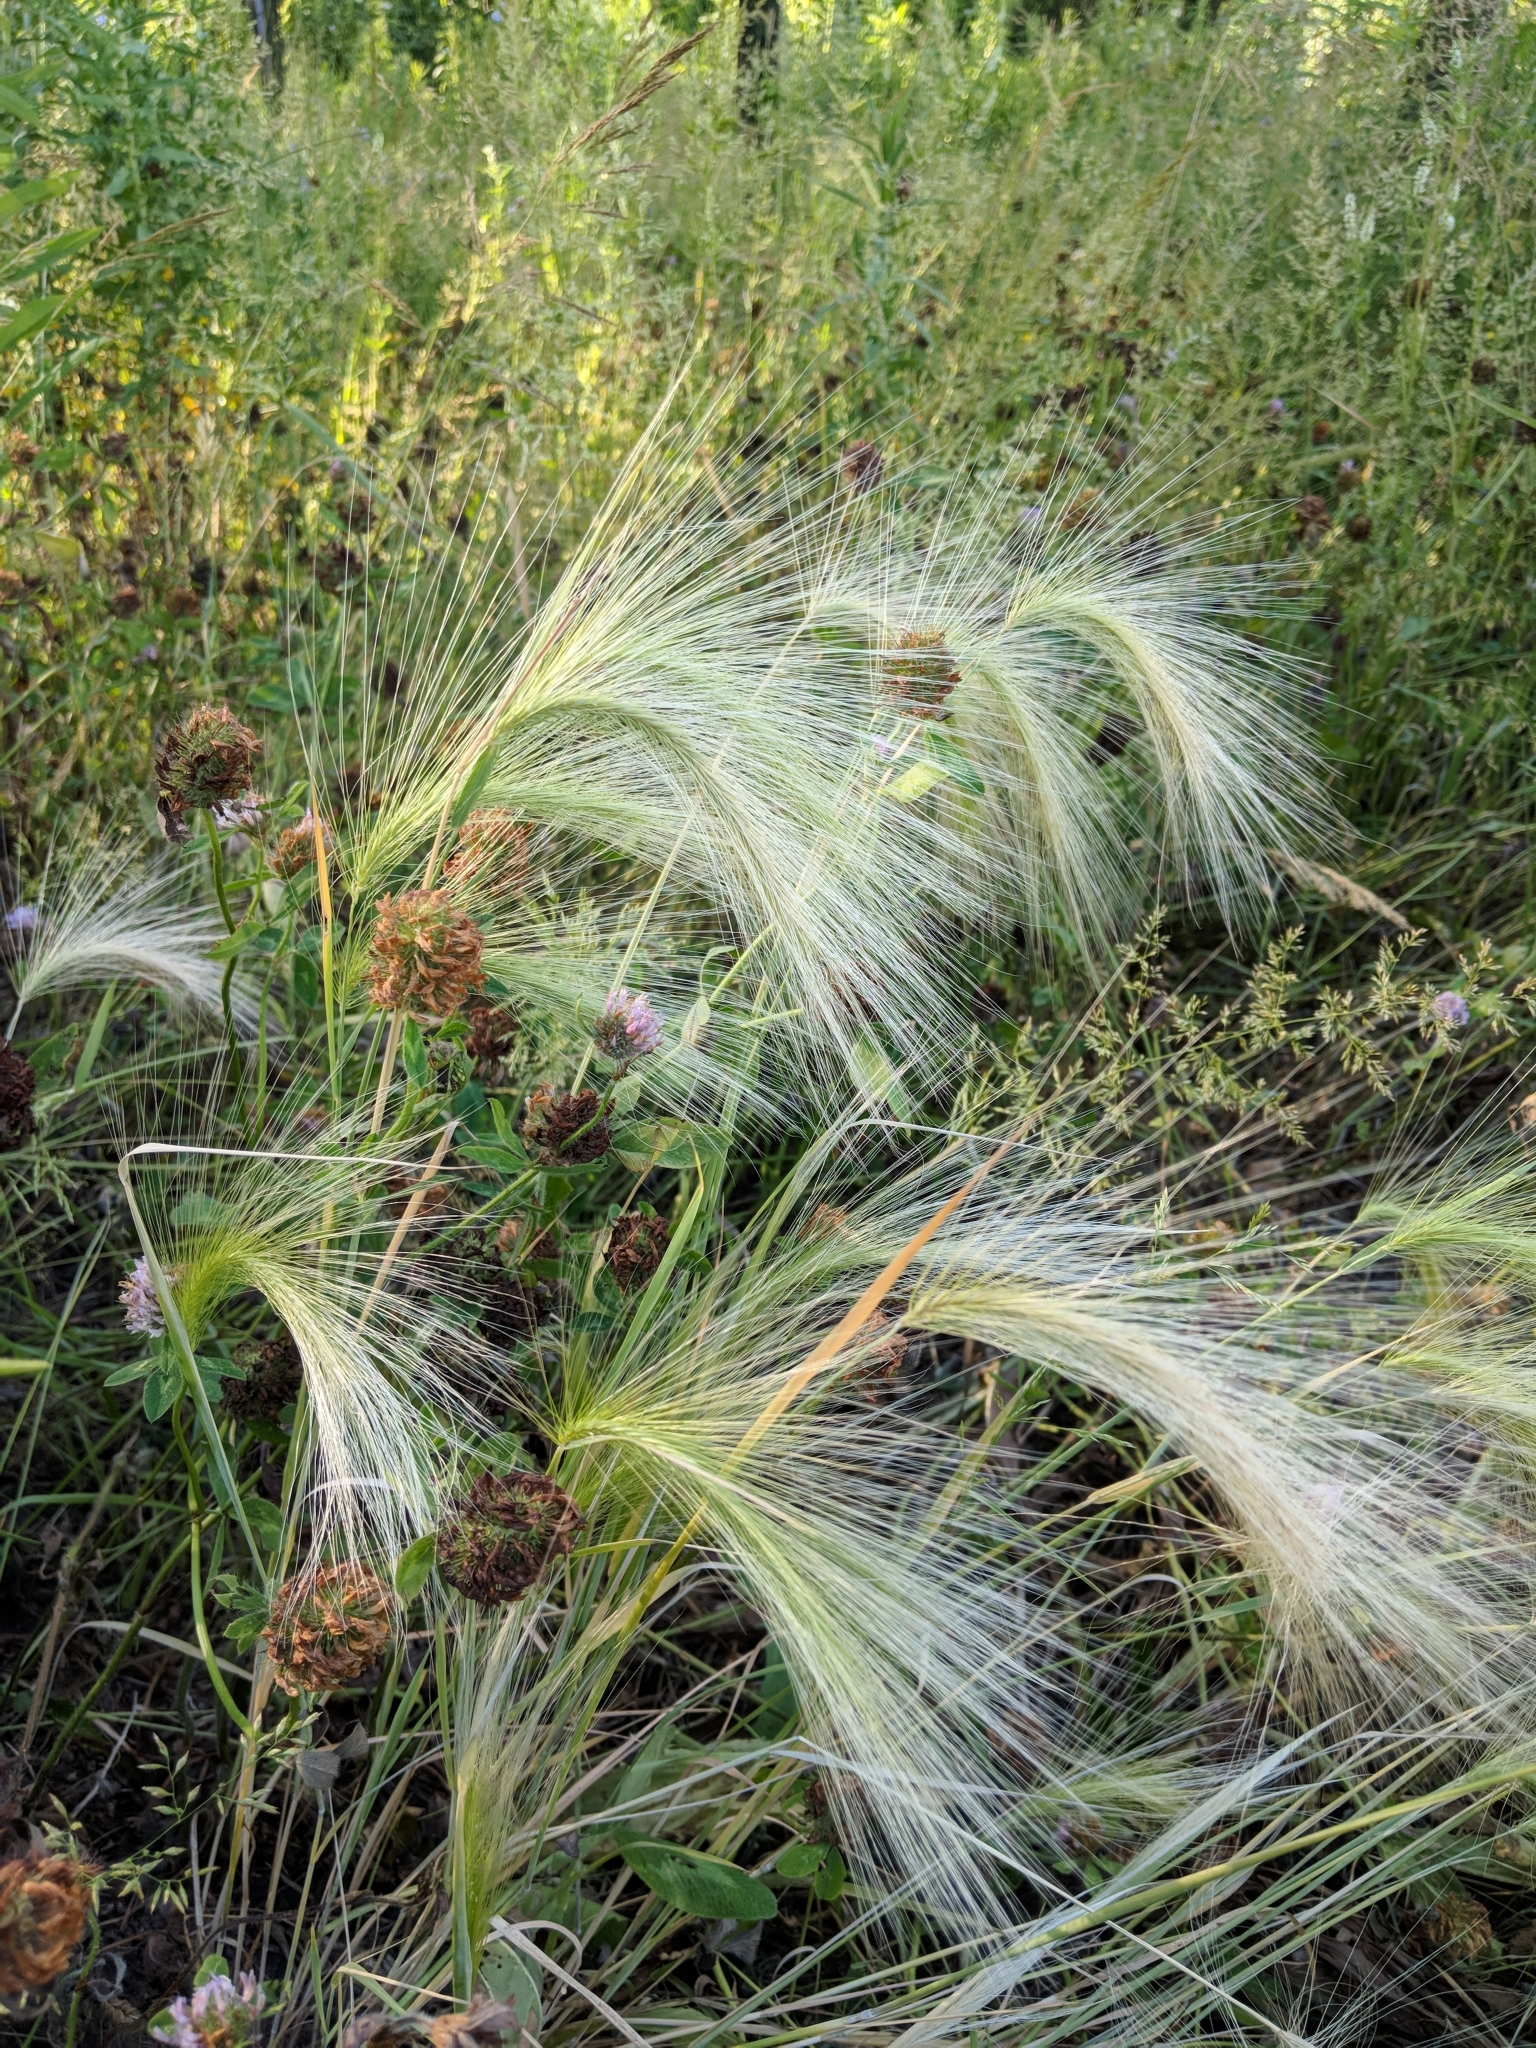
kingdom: Plantae
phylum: Tracheophyta
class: Liliopsida
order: Poales
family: Poaceae
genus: Hordeum
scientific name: Hordeum jubatum
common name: Foxtail barley
